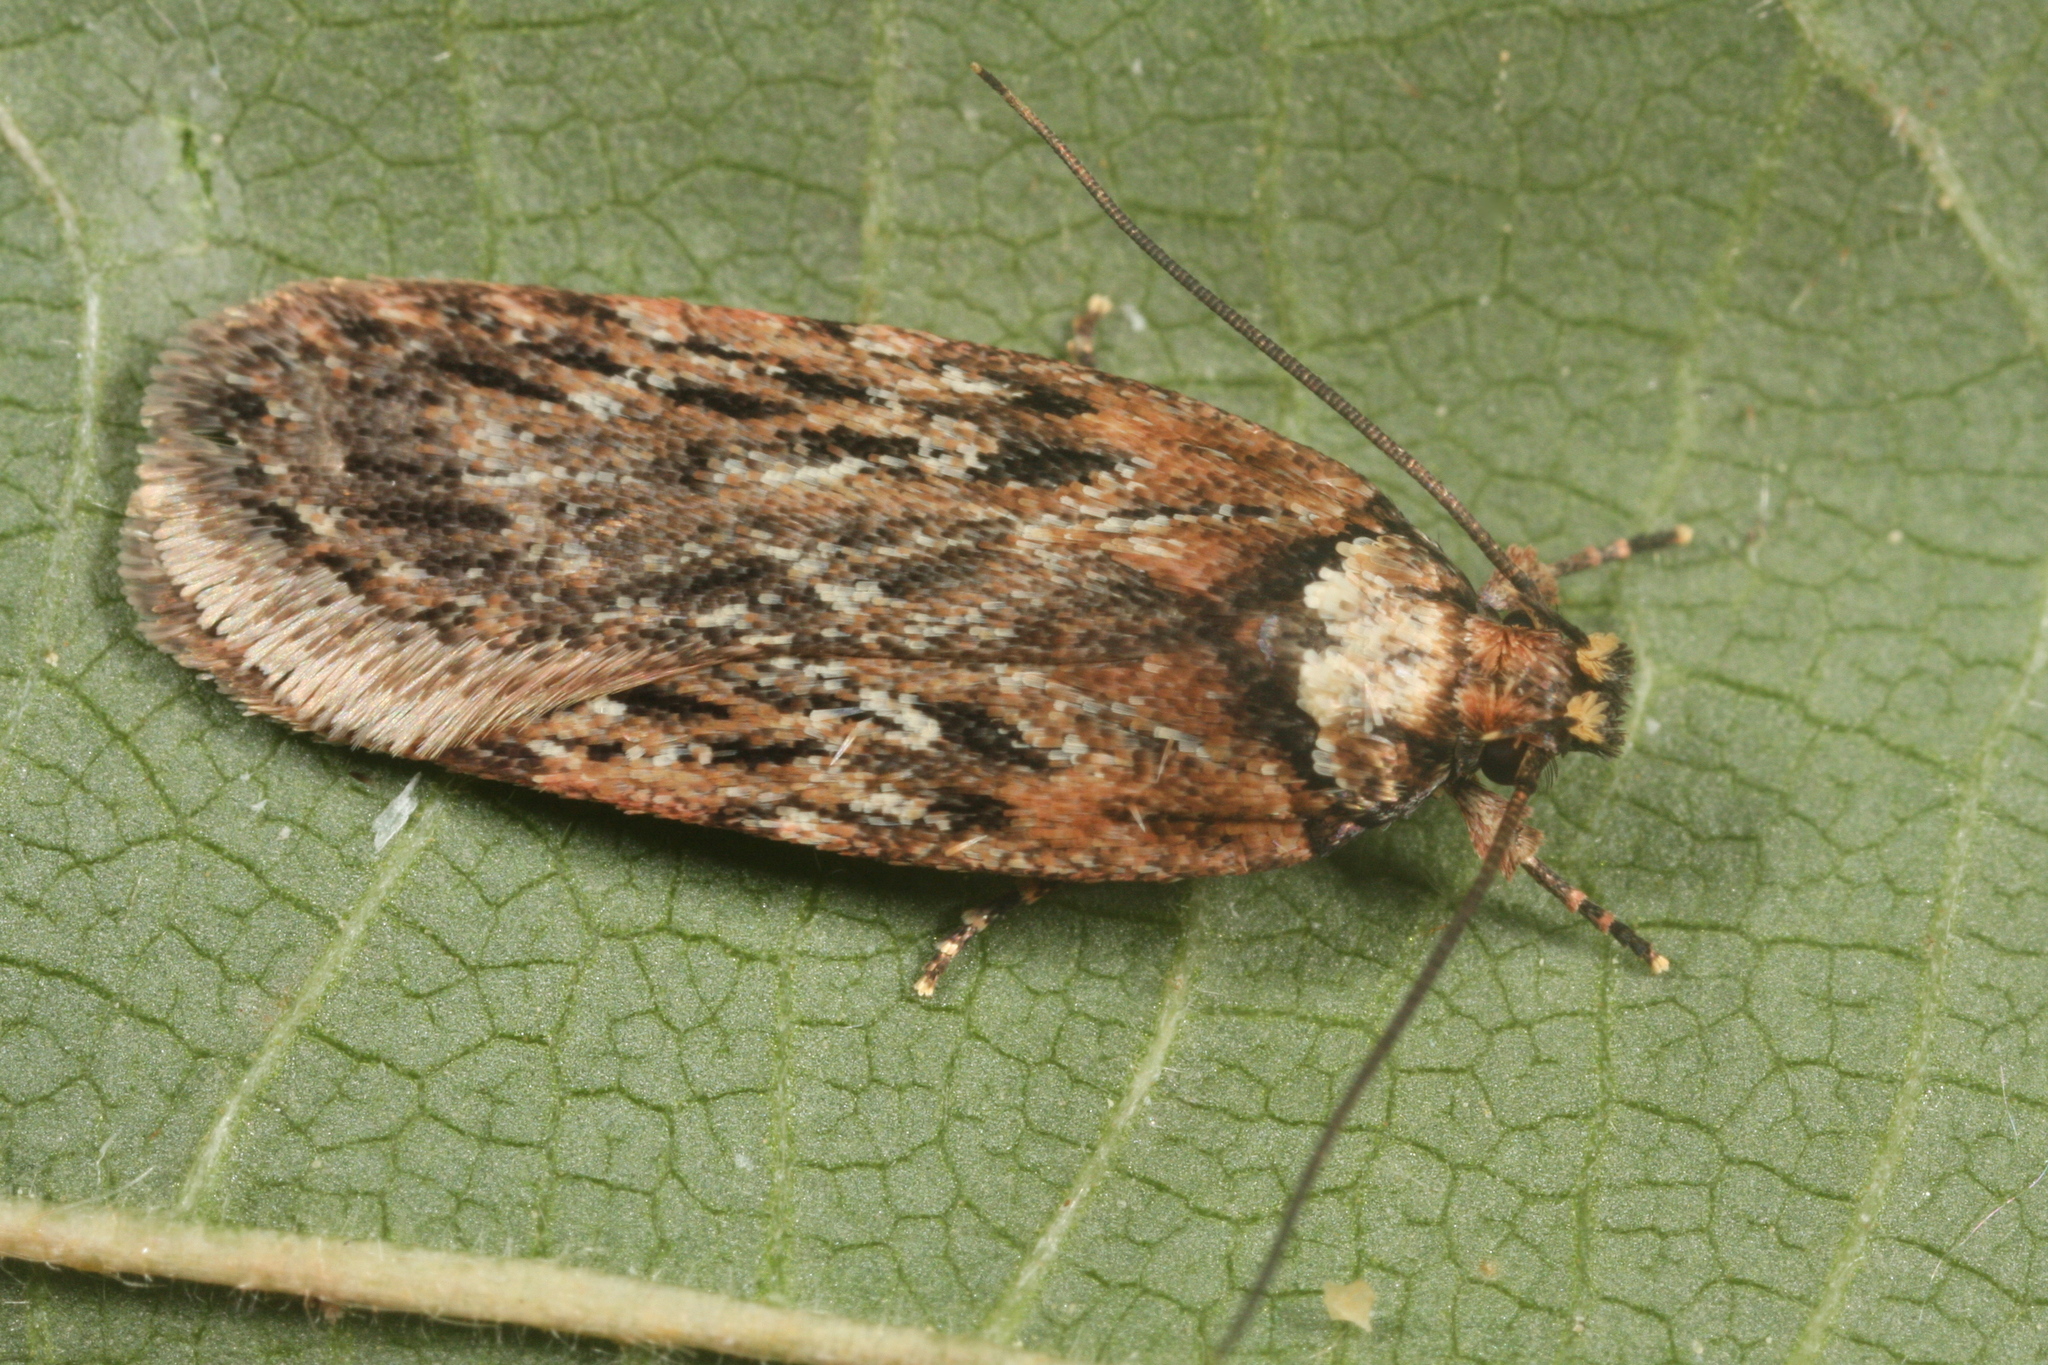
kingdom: Animalia
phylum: Arthropoda
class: Insecta
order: Lepidoptera
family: Depressariidae
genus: Depressaria
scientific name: Depressaria chaerophylli
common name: Streaked flat-body
